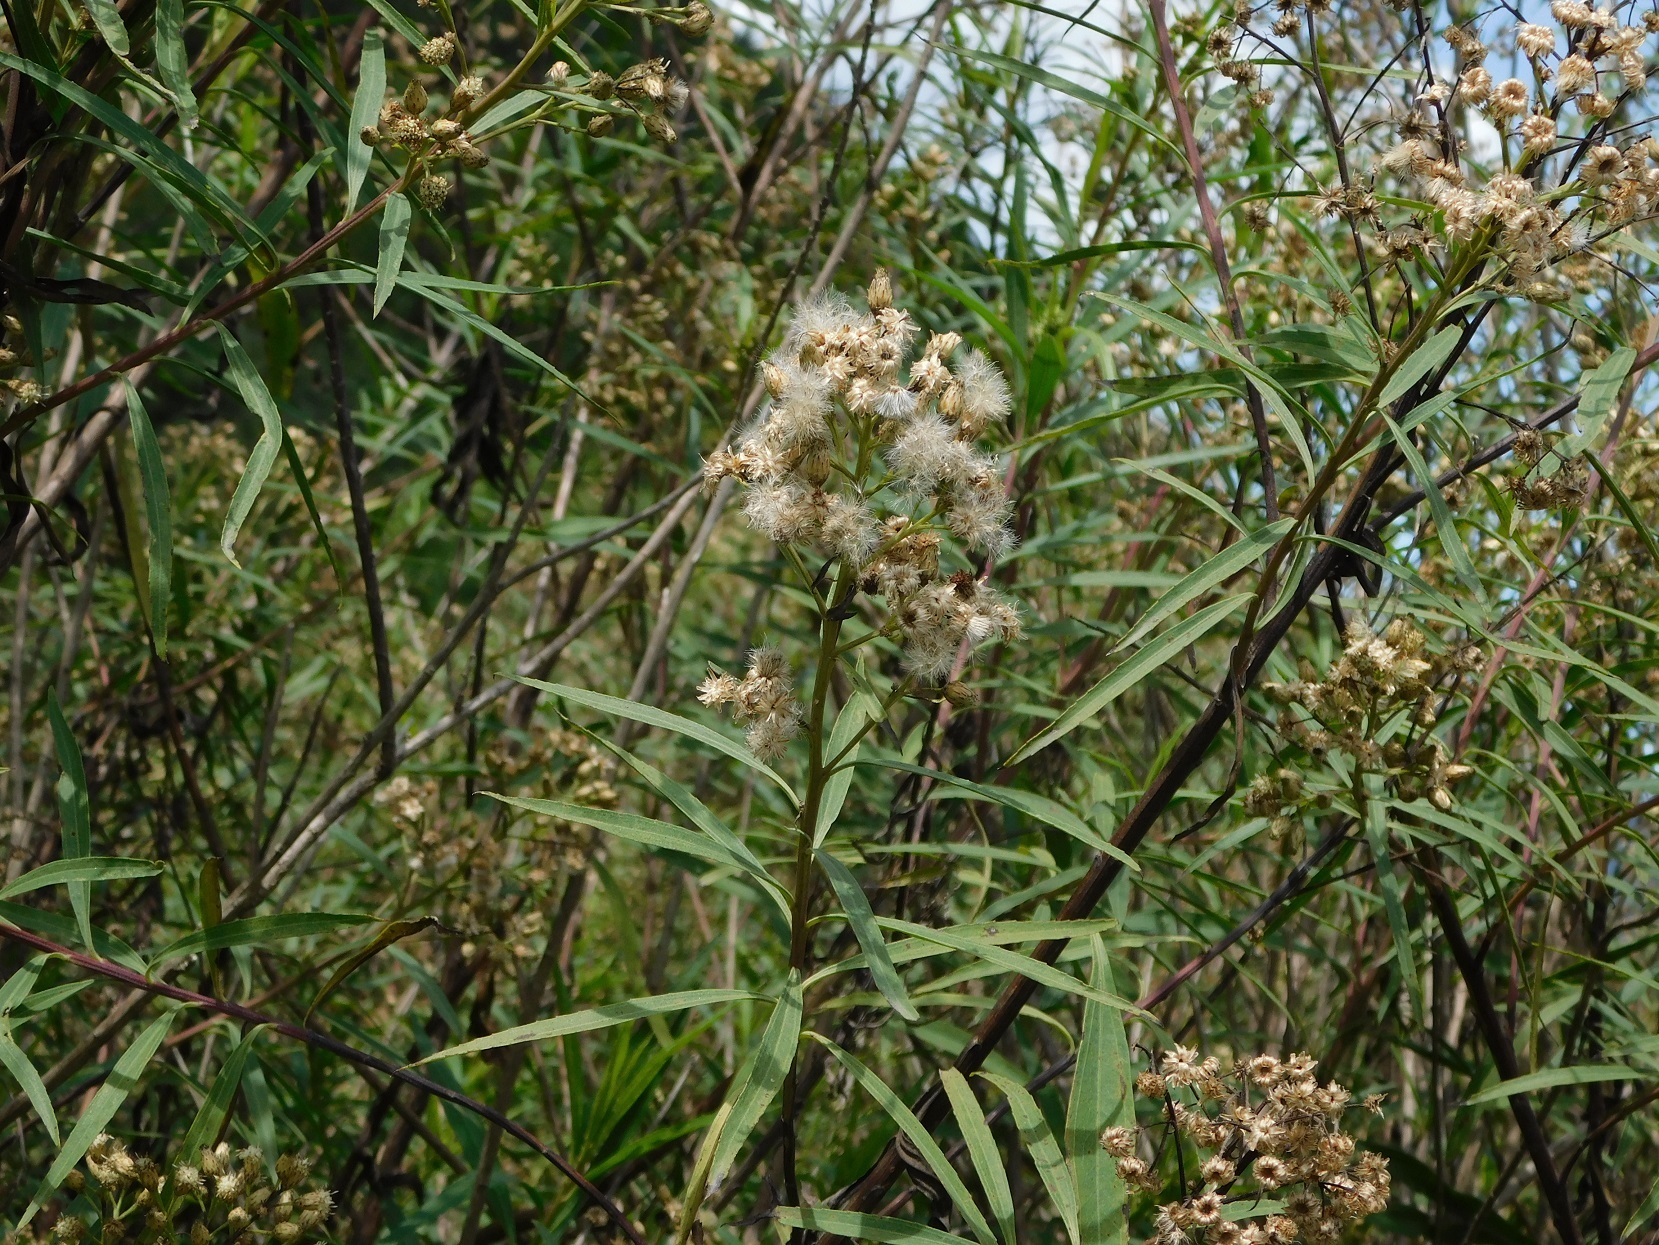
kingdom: Plantae
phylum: Tracheophyta
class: Magnoliopsida
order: Asterales
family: Asteraceae
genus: Baccharis
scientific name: Baccharis salicifolia
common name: Sticky baccharis
